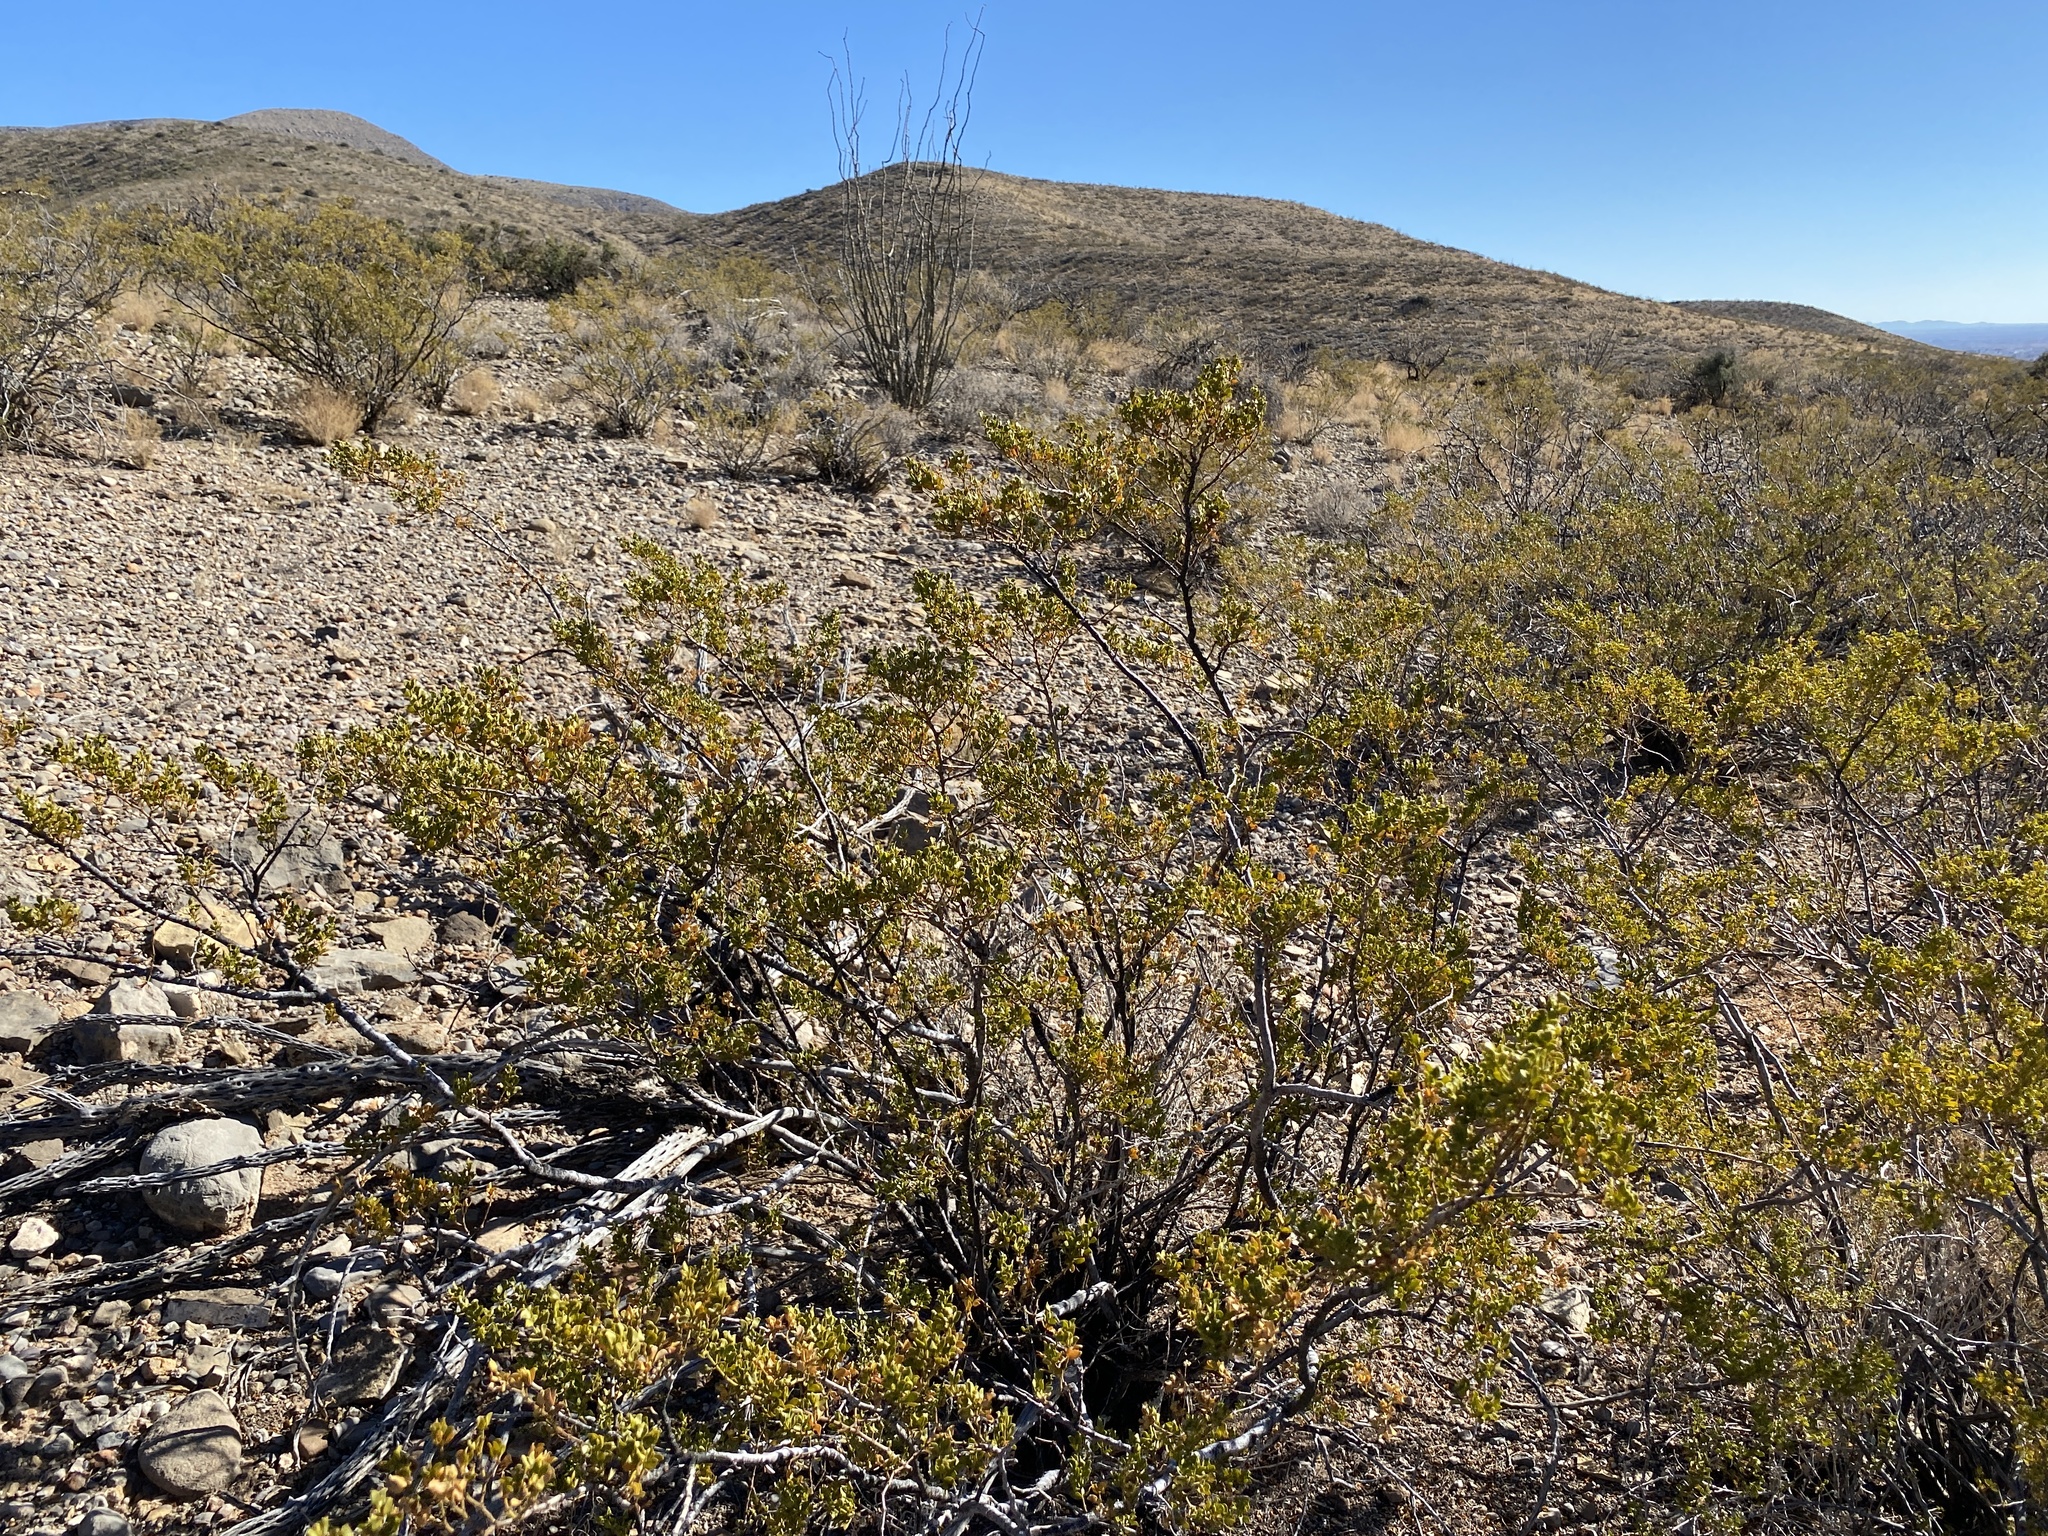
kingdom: Plantae
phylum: Tracheophyta
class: Magnoliopsida
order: Zygophyllales
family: Zygophyllaceae
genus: Larrea
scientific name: Larrea tridentata
